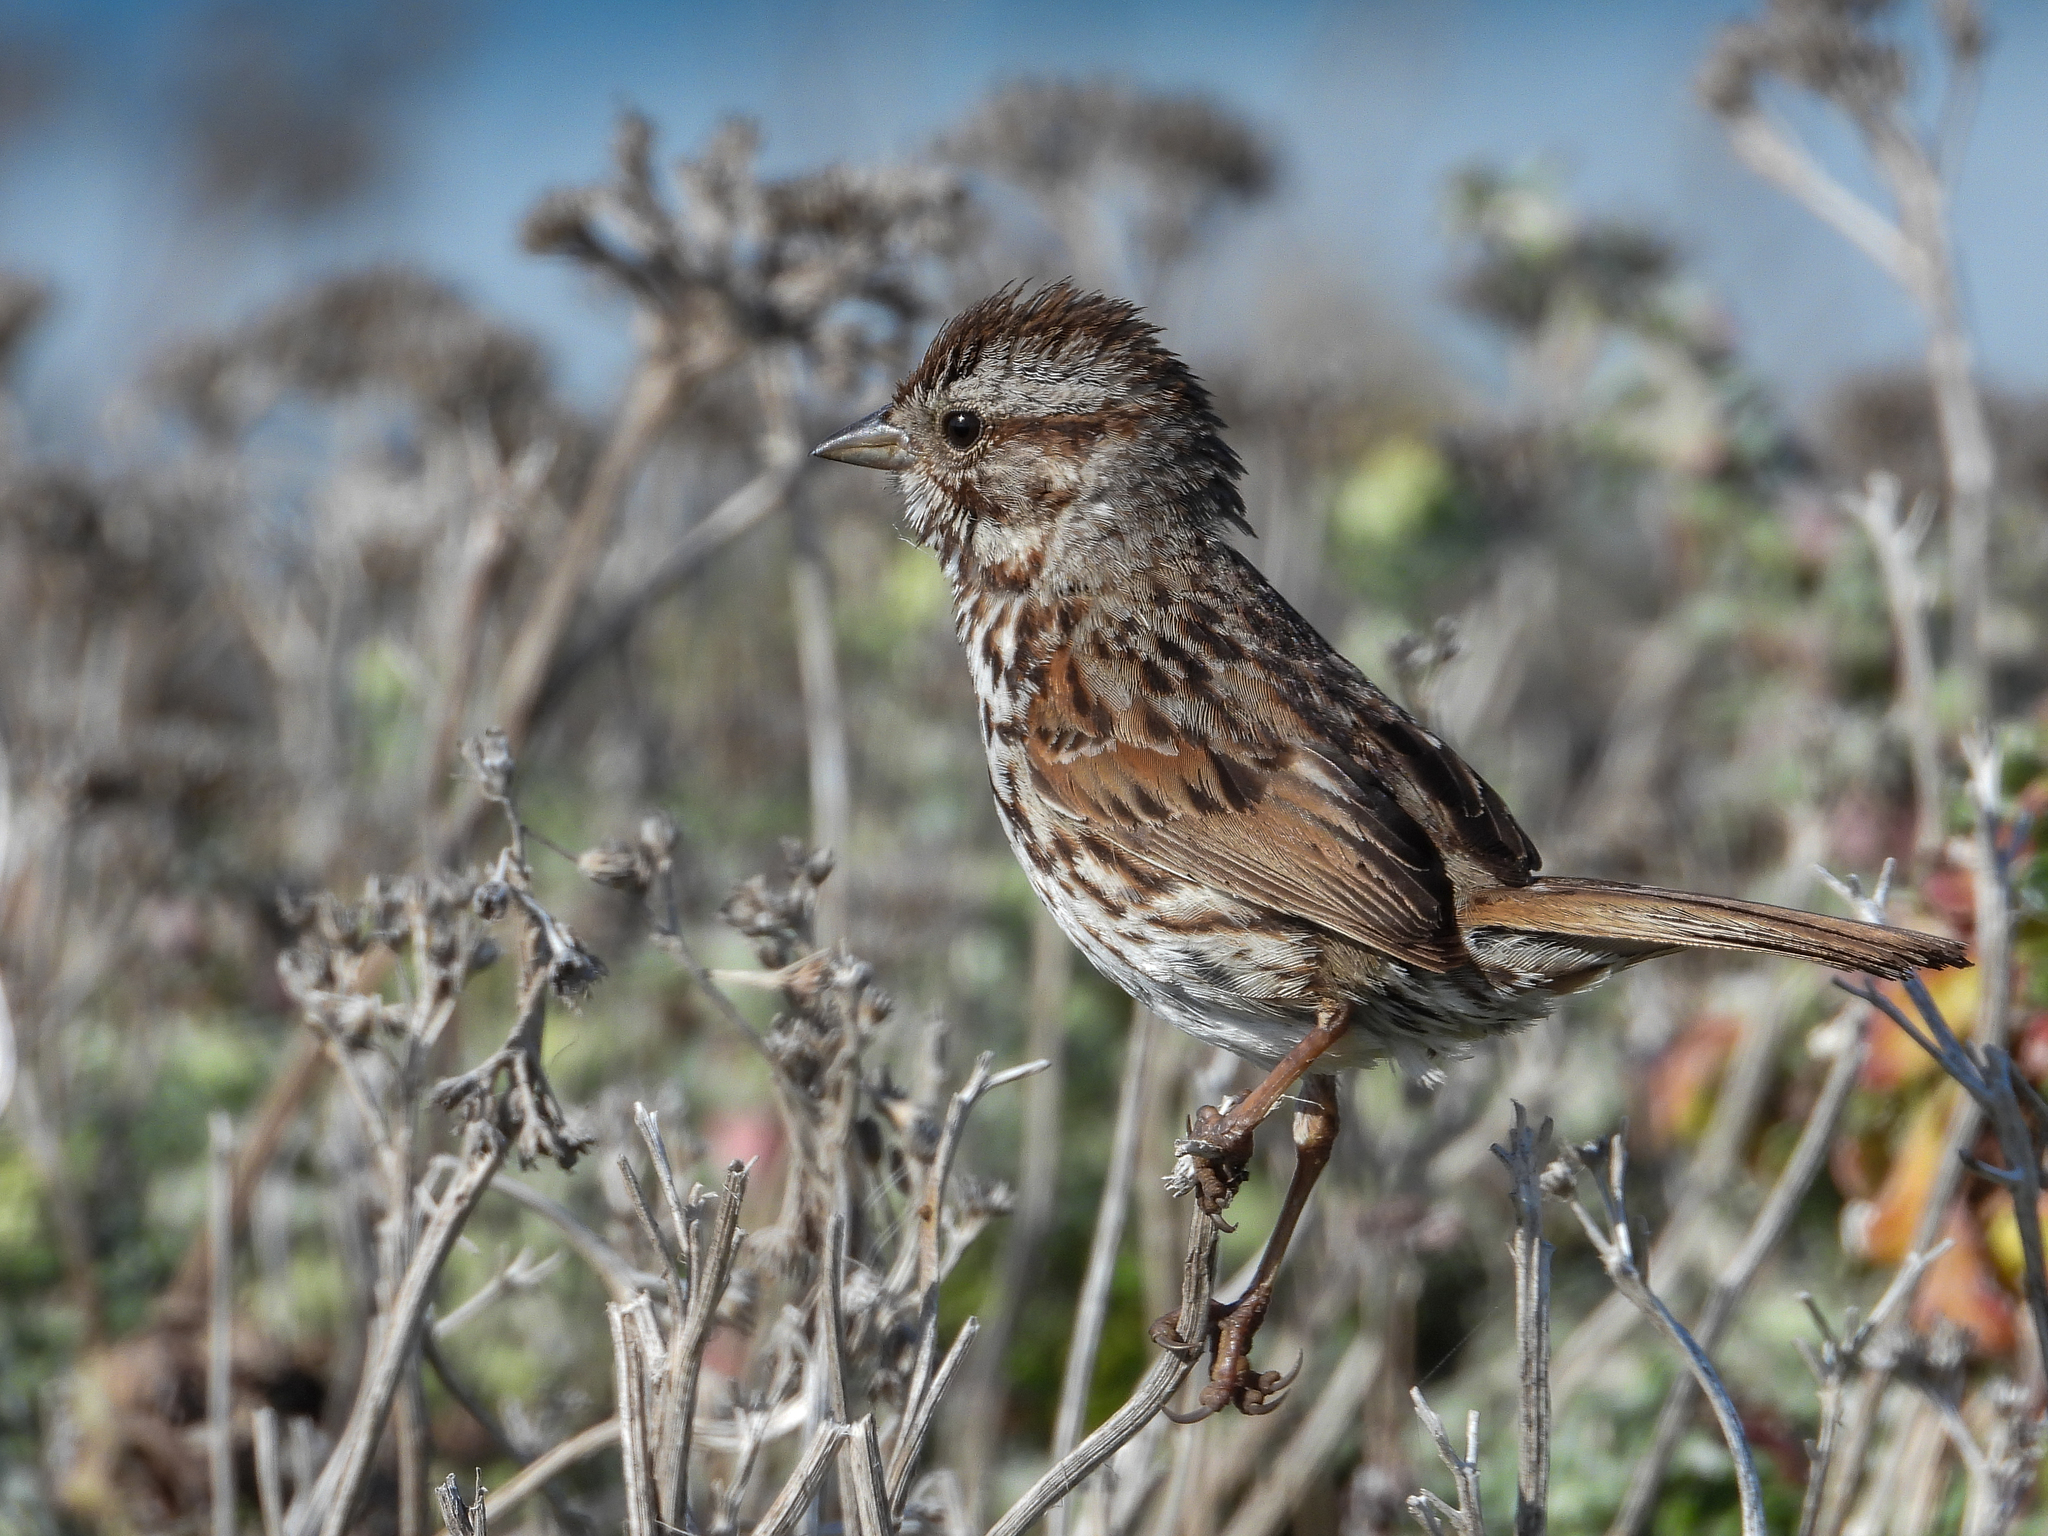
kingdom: Animalia
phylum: Chordata
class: Aves
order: Passeriformes
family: Passerellidae
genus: Melospiza
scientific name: Melospiza melodia
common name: Song sparrow
